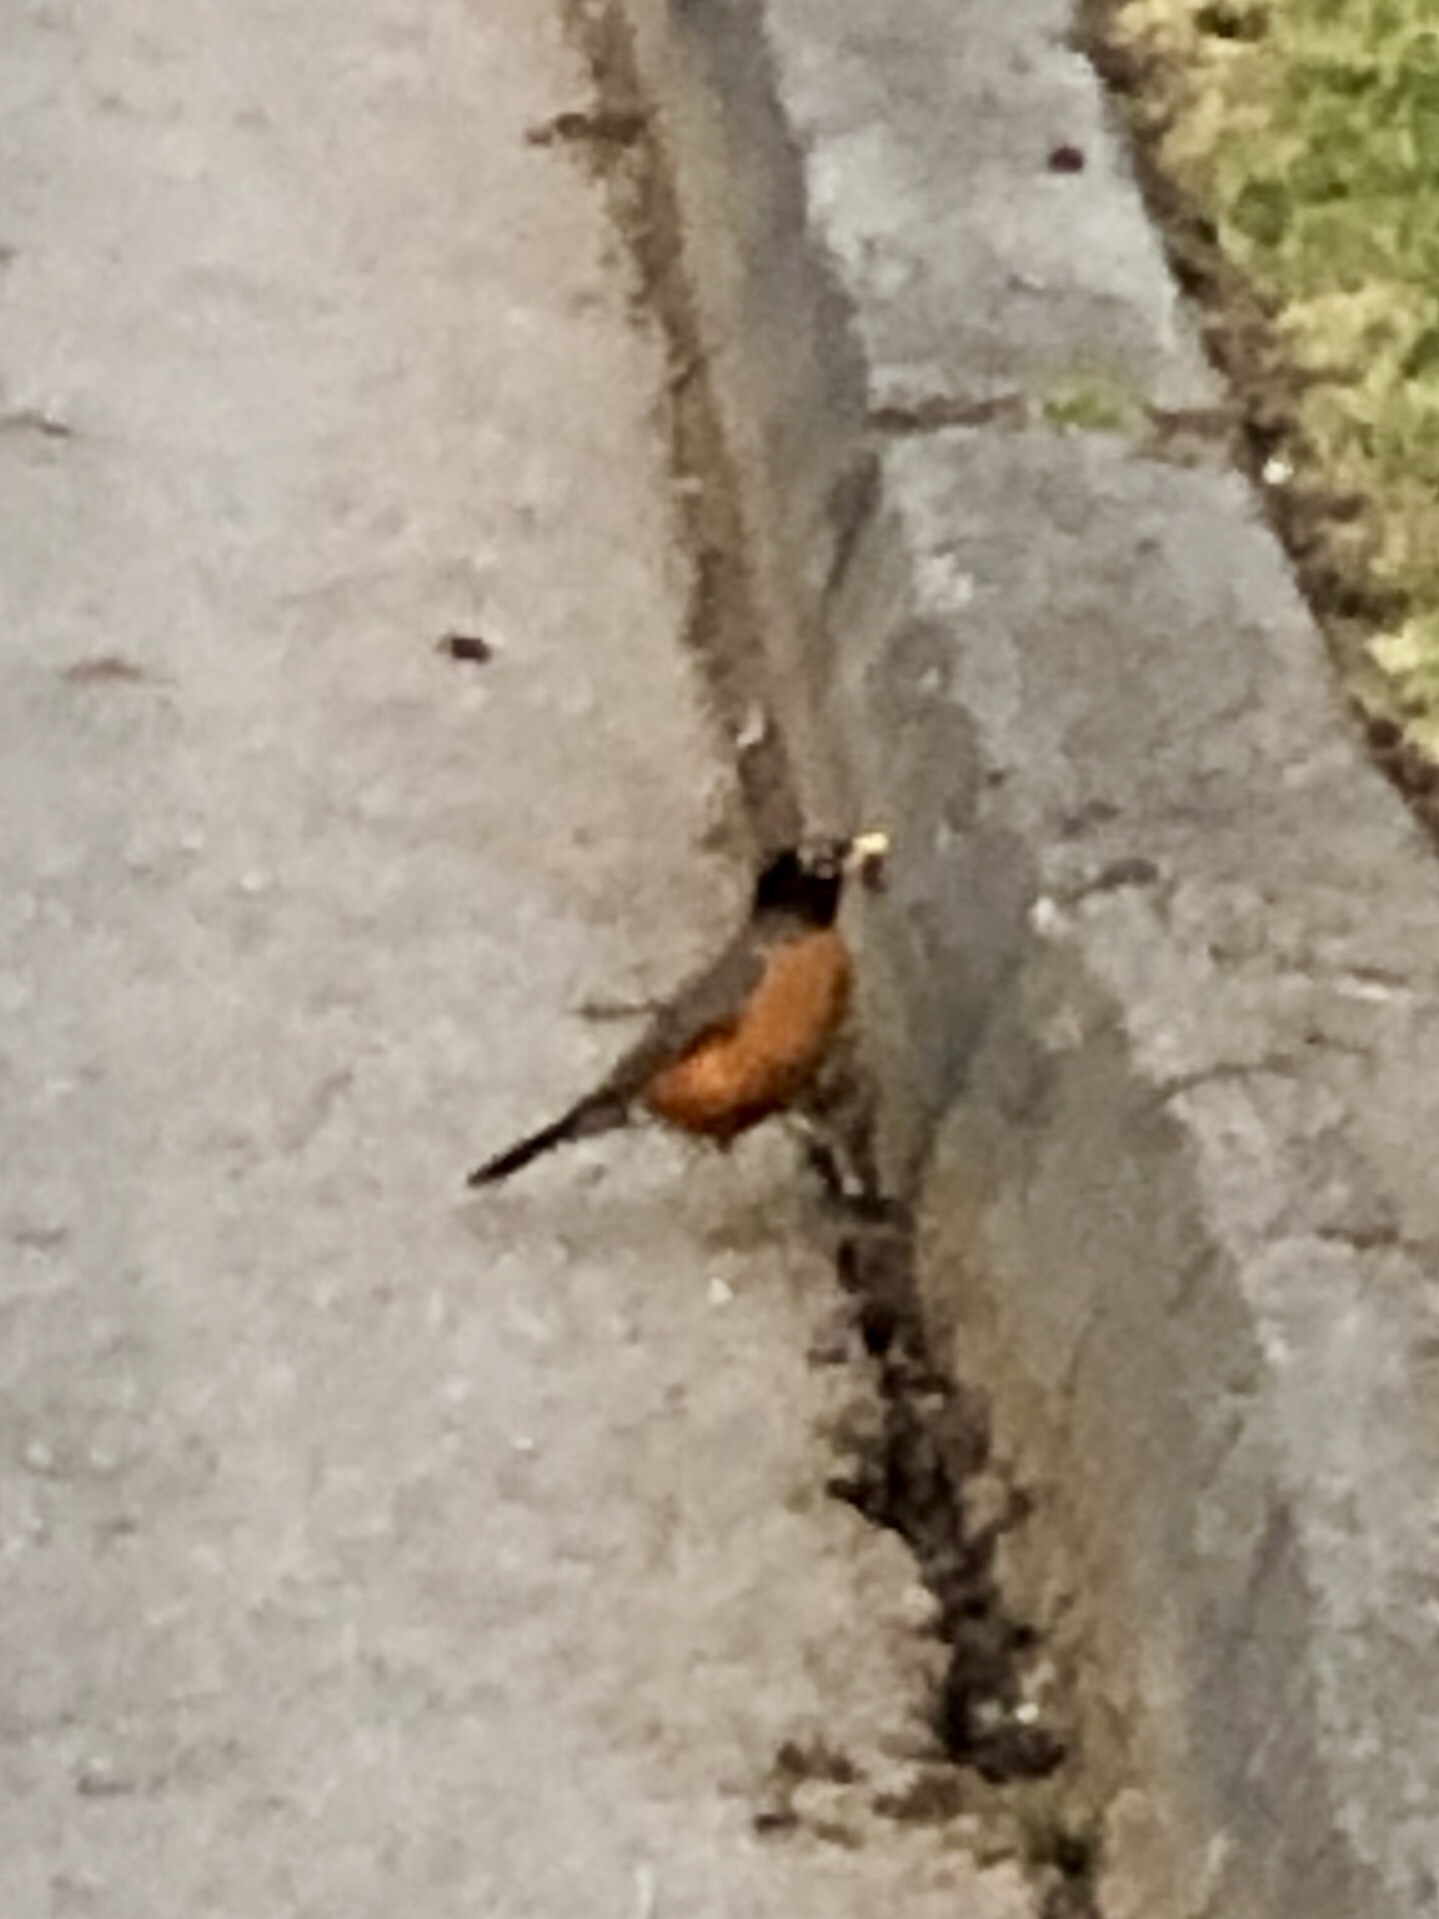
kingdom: Animalia
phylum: Chordata
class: Aves
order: Passeriformes
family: Turdidae
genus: Turdus
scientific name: Turdus migratorius
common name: American robin
